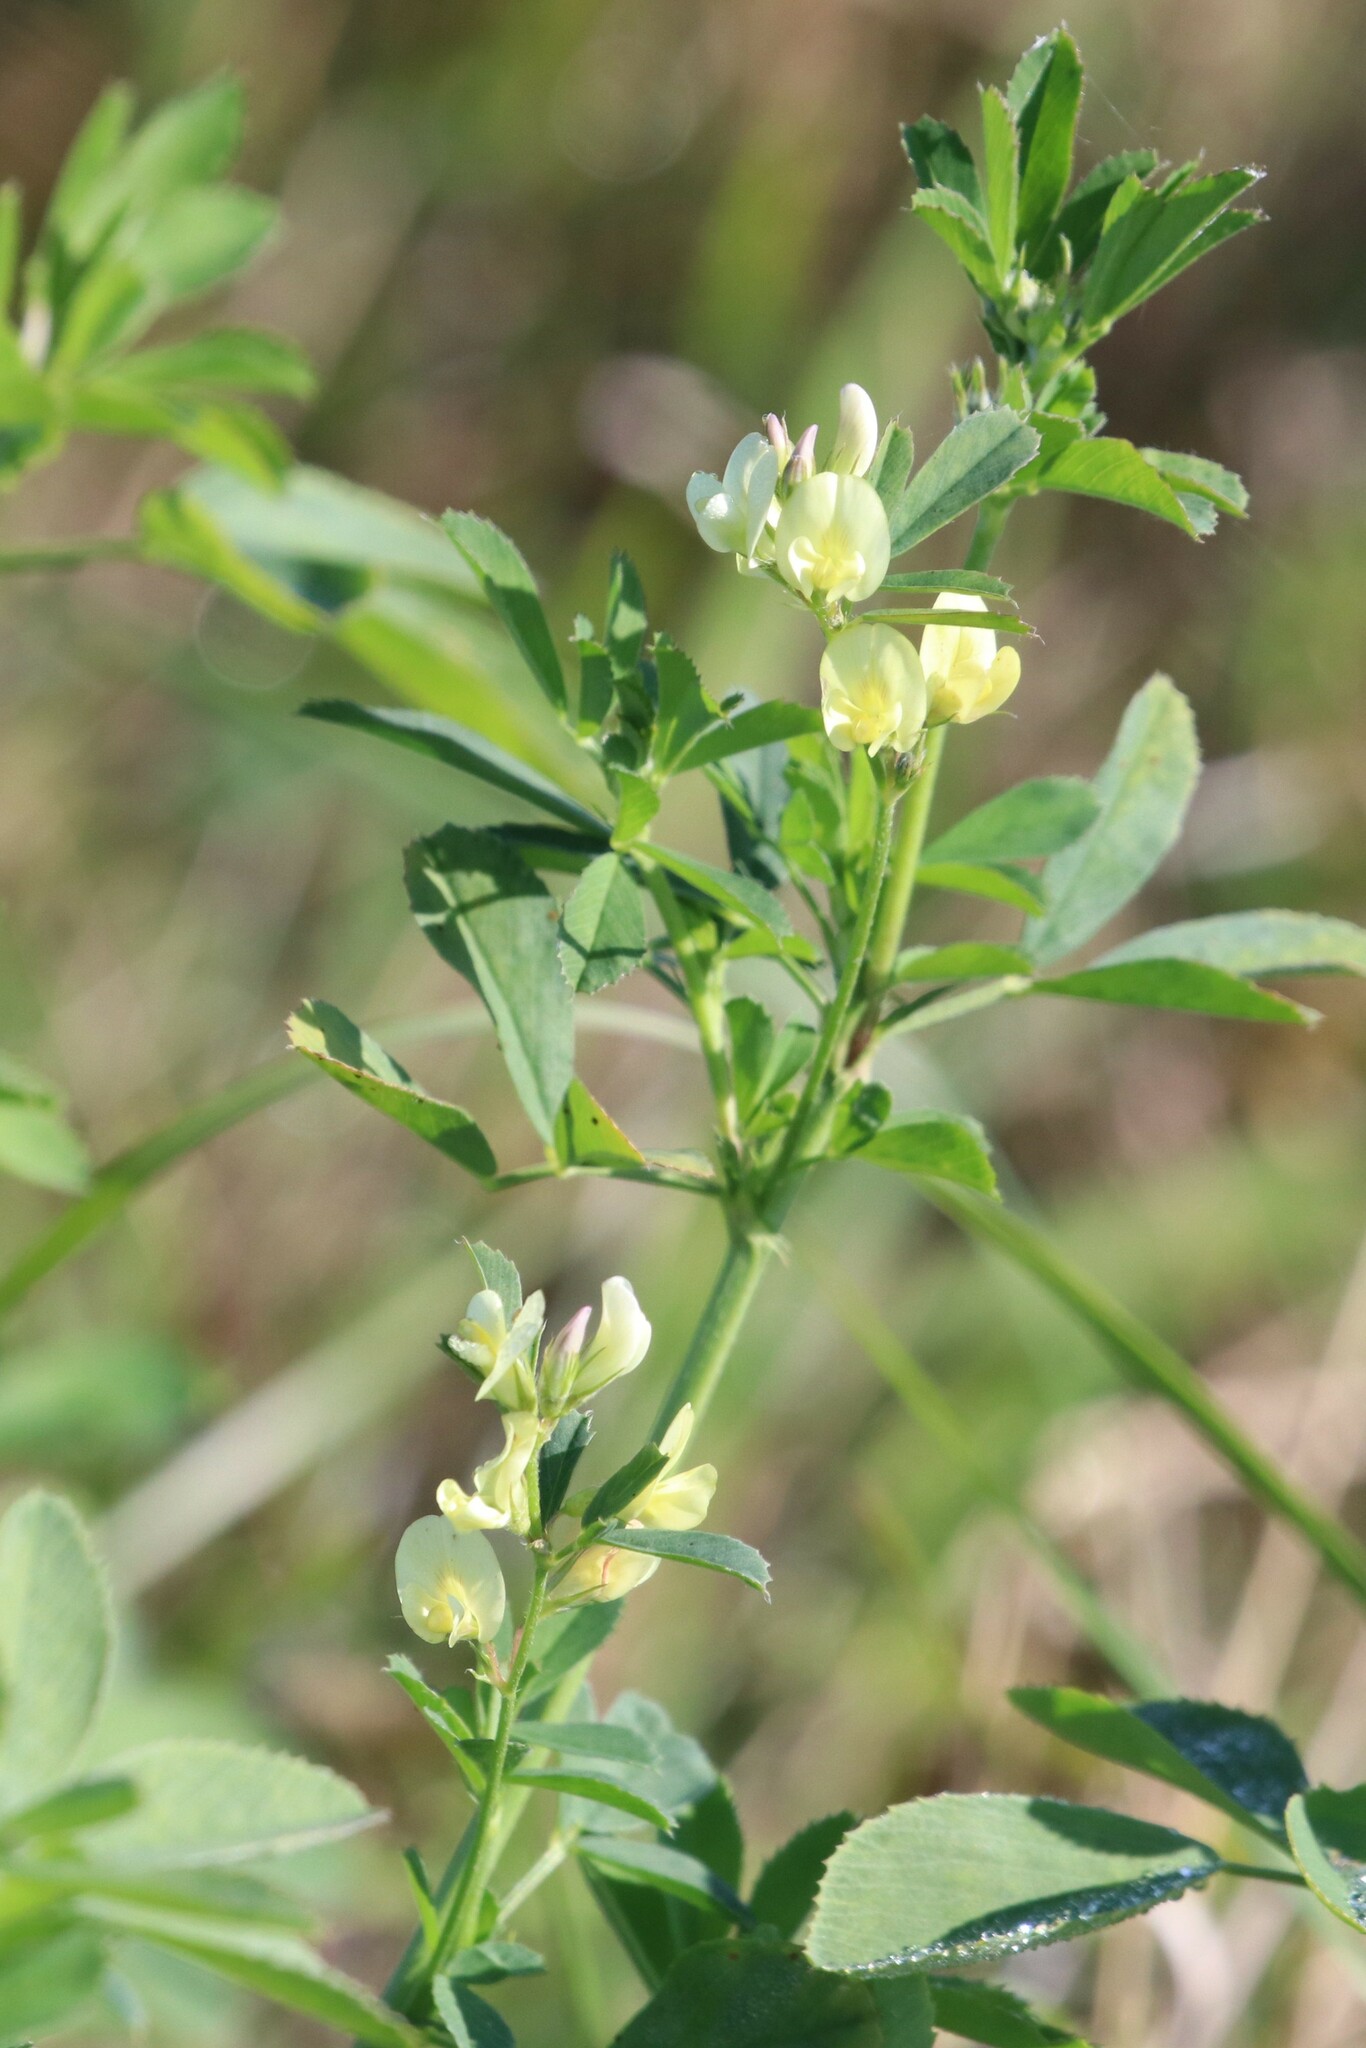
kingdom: Plantae
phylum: Tracheophyta
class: Magnoliopsida
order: Fabales
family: Fabaceae
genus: Medicago
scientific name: Medicago varia
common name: Sand lucerne
